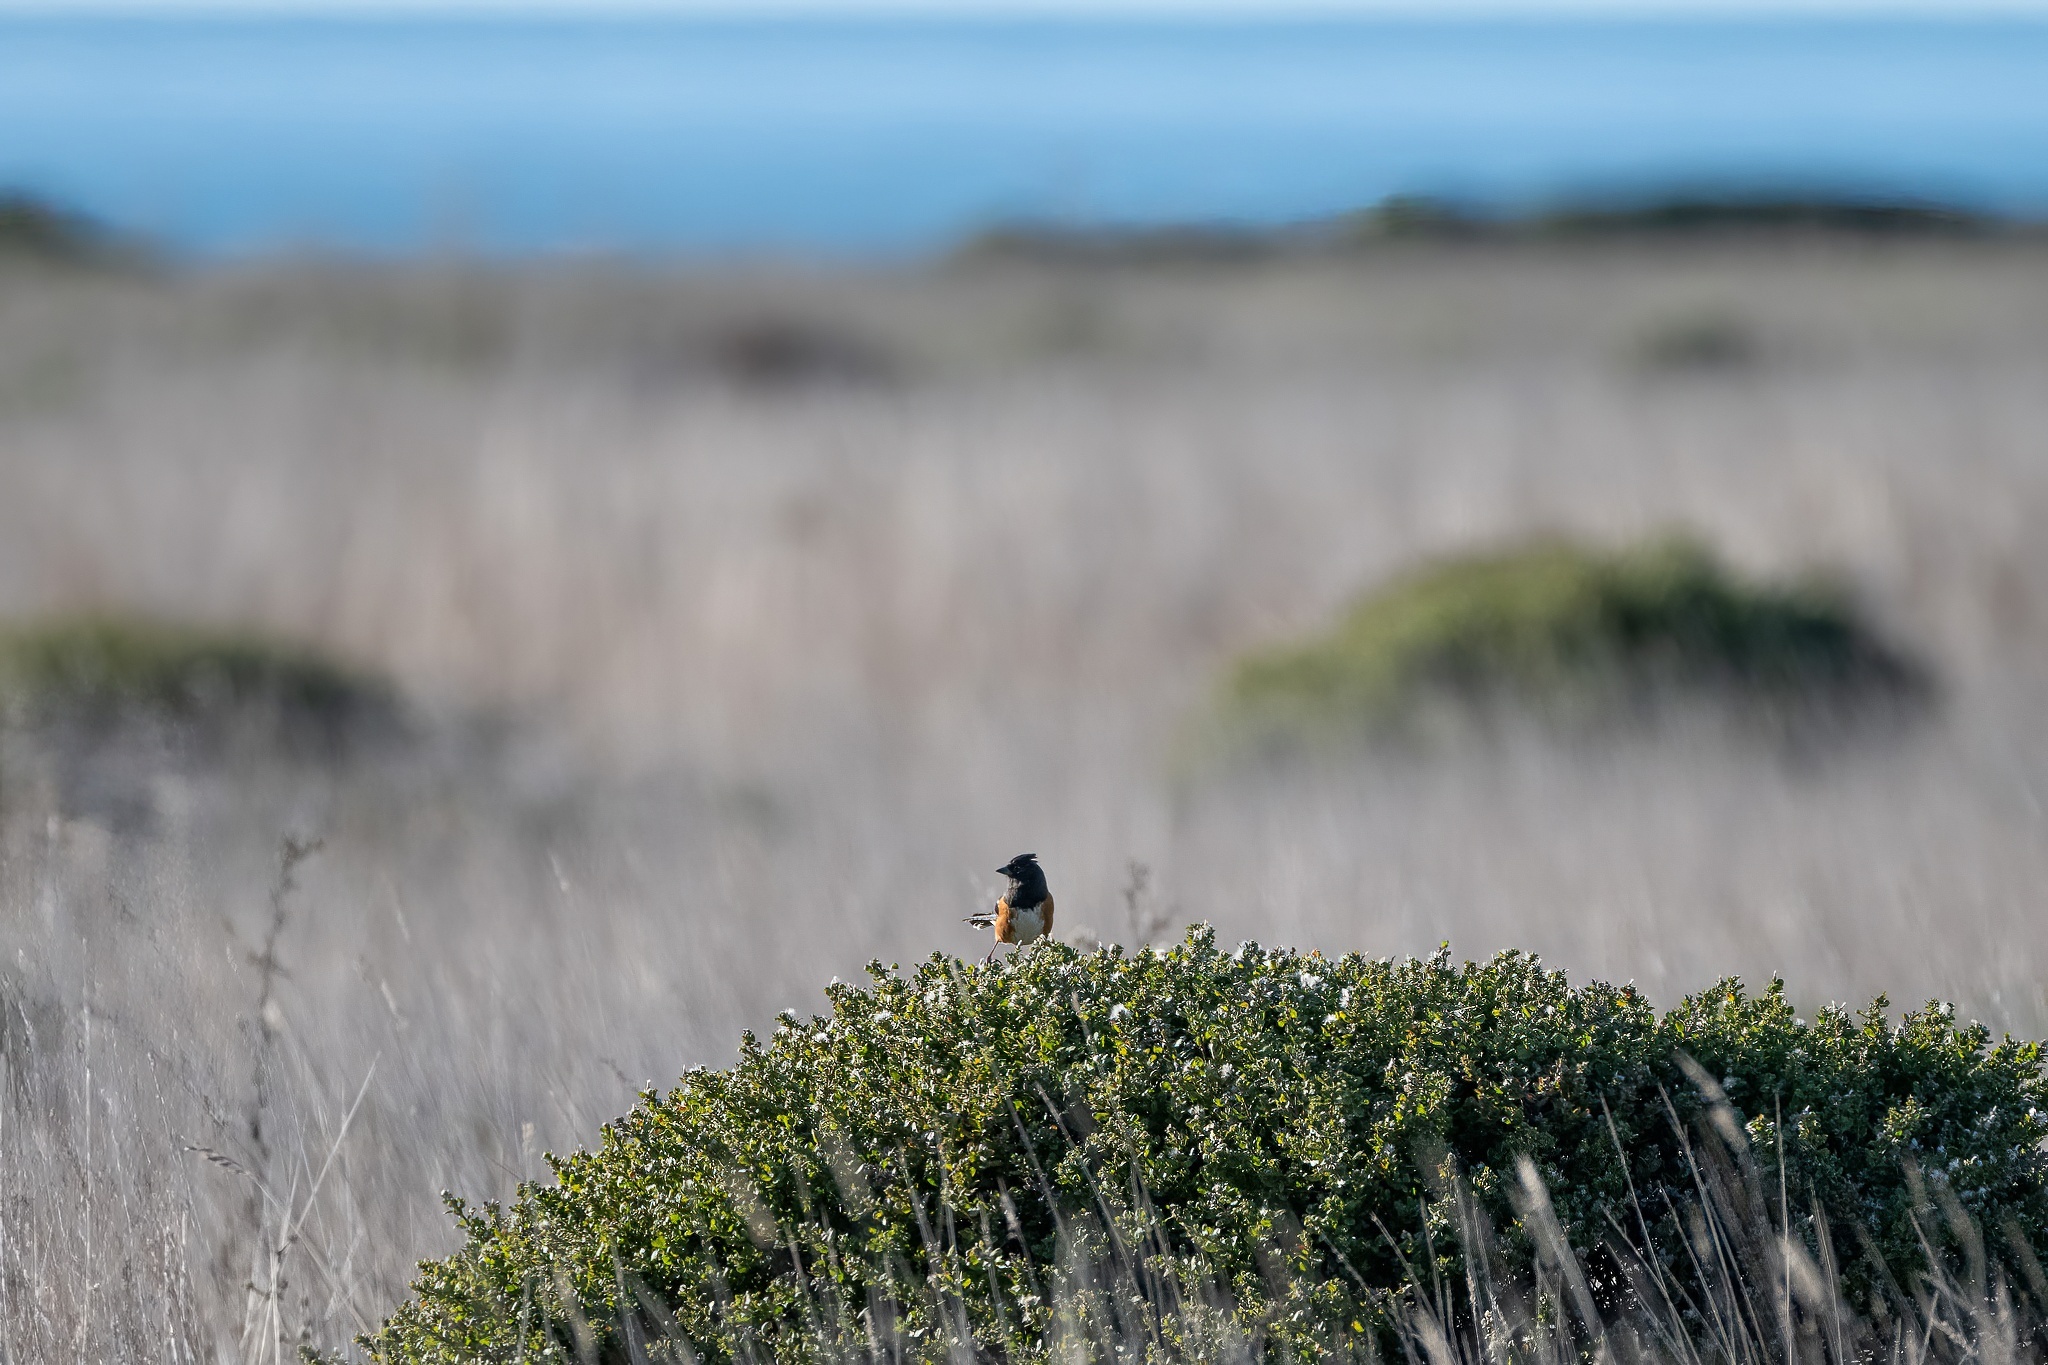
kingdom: Animalia
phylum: Chordata
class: Aves
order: Passeriformes
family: Passerellidae
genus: Pipilo
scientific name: Pipilo maculatus
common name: Spotted towhee
